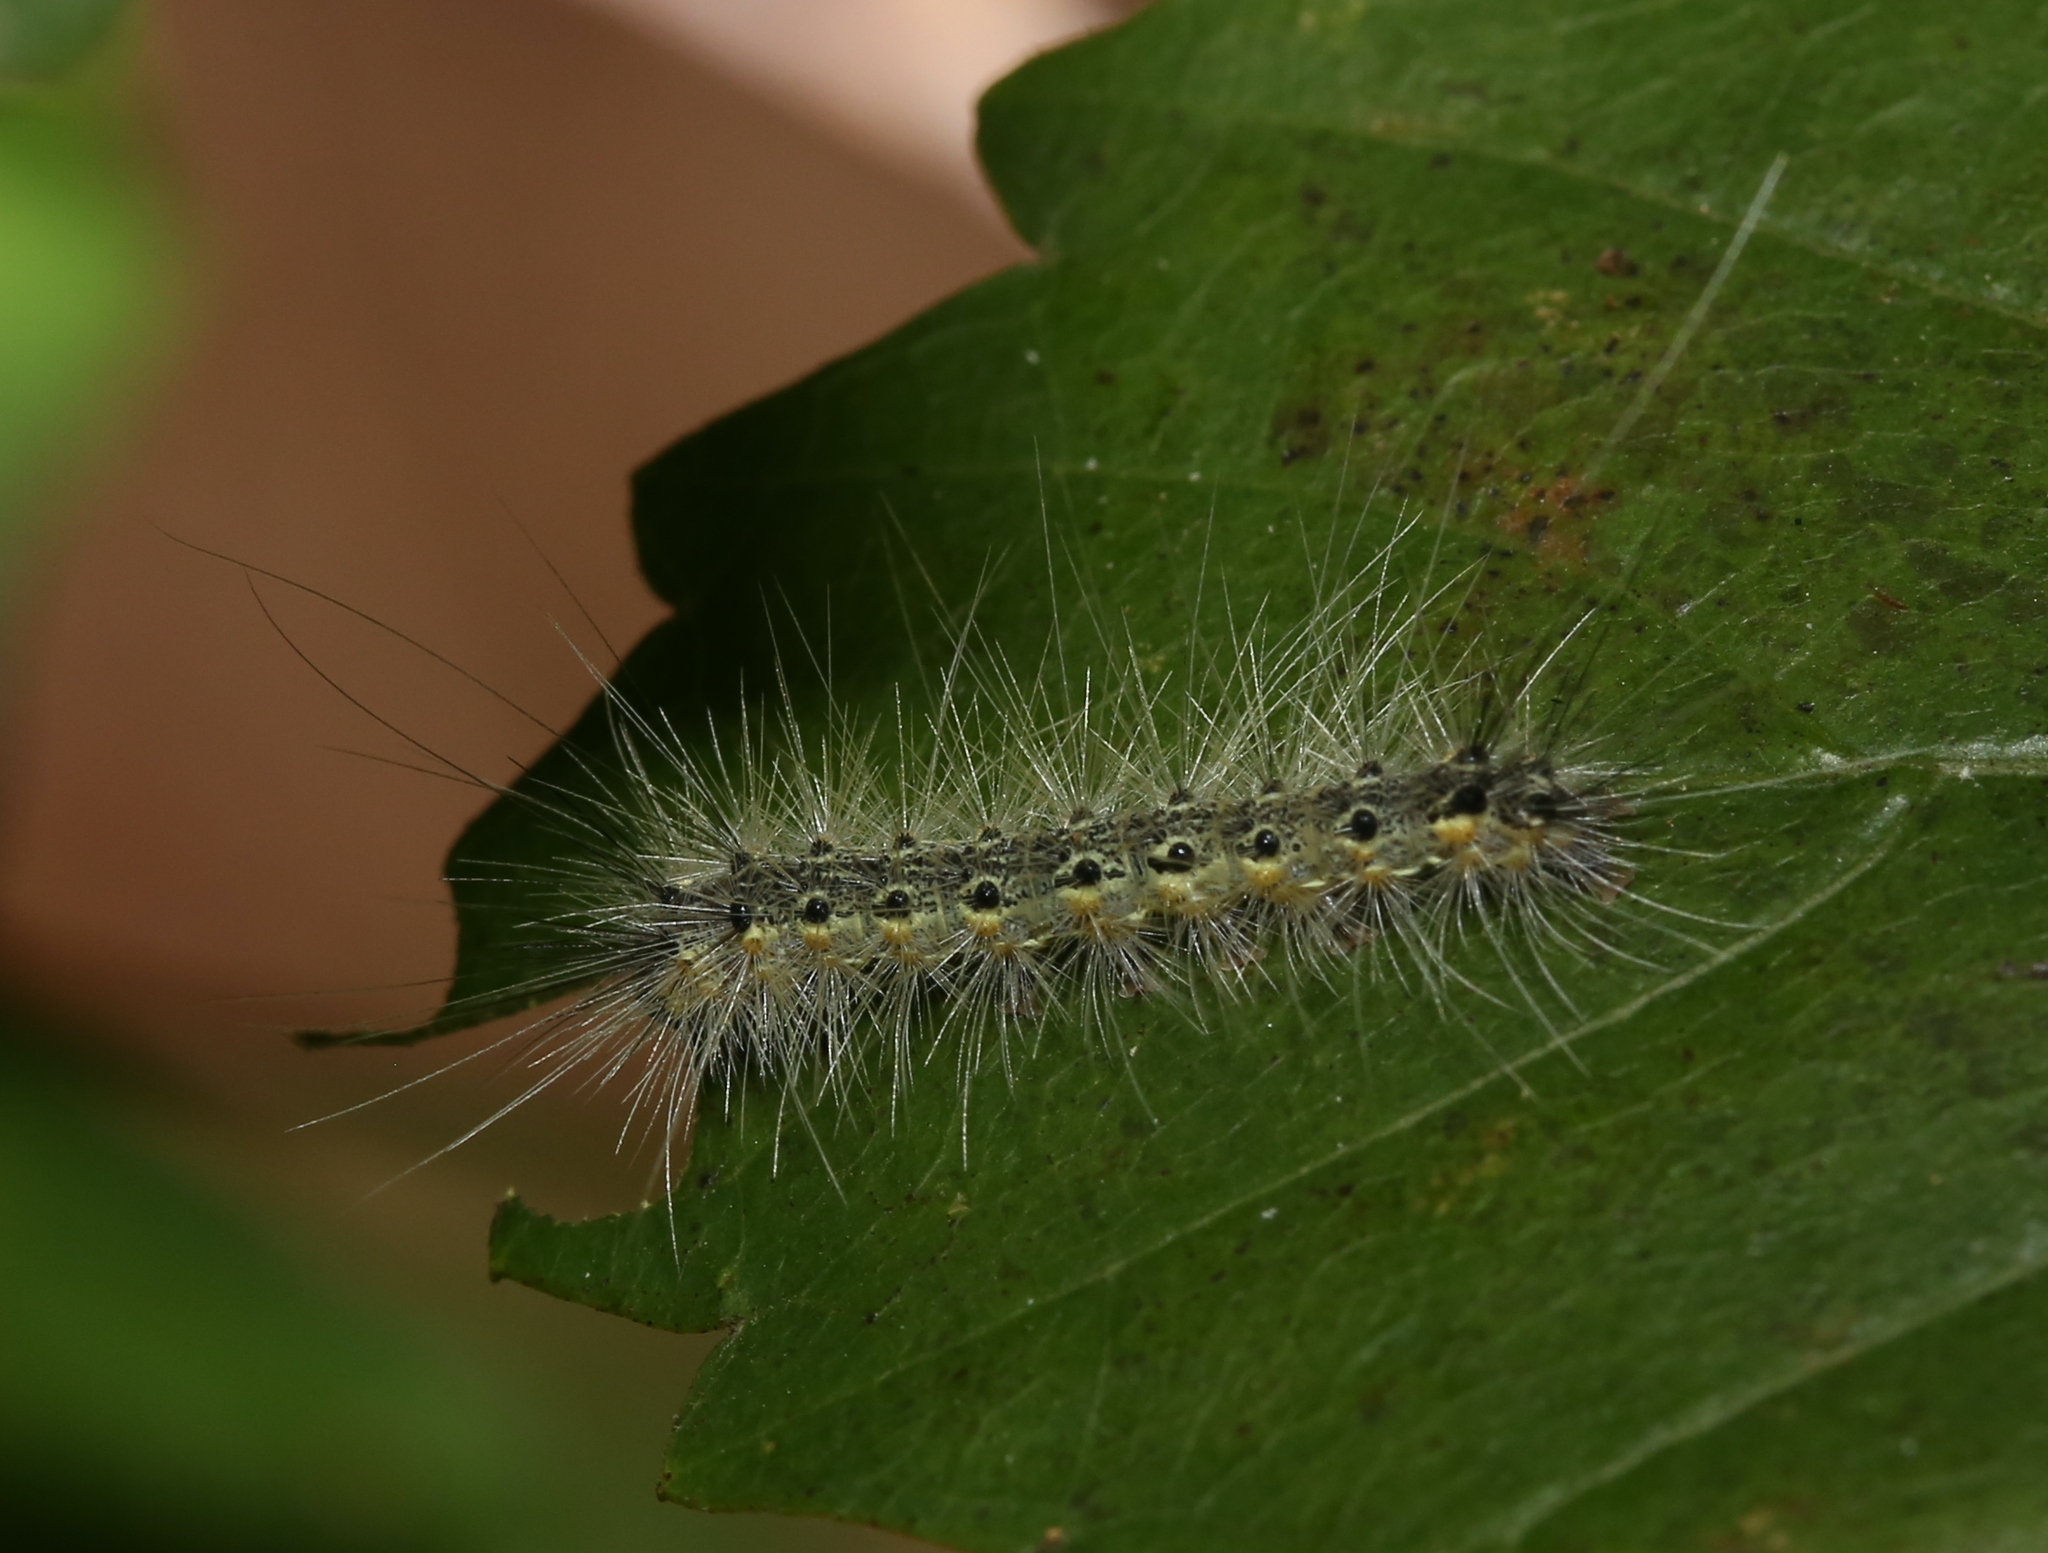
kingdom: Animalia
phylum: Arthropoda
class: Insecta
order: Lepidoptera
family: Erebidae
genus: Hyphantria
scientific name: Hyphantria cunea
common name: American white moth
